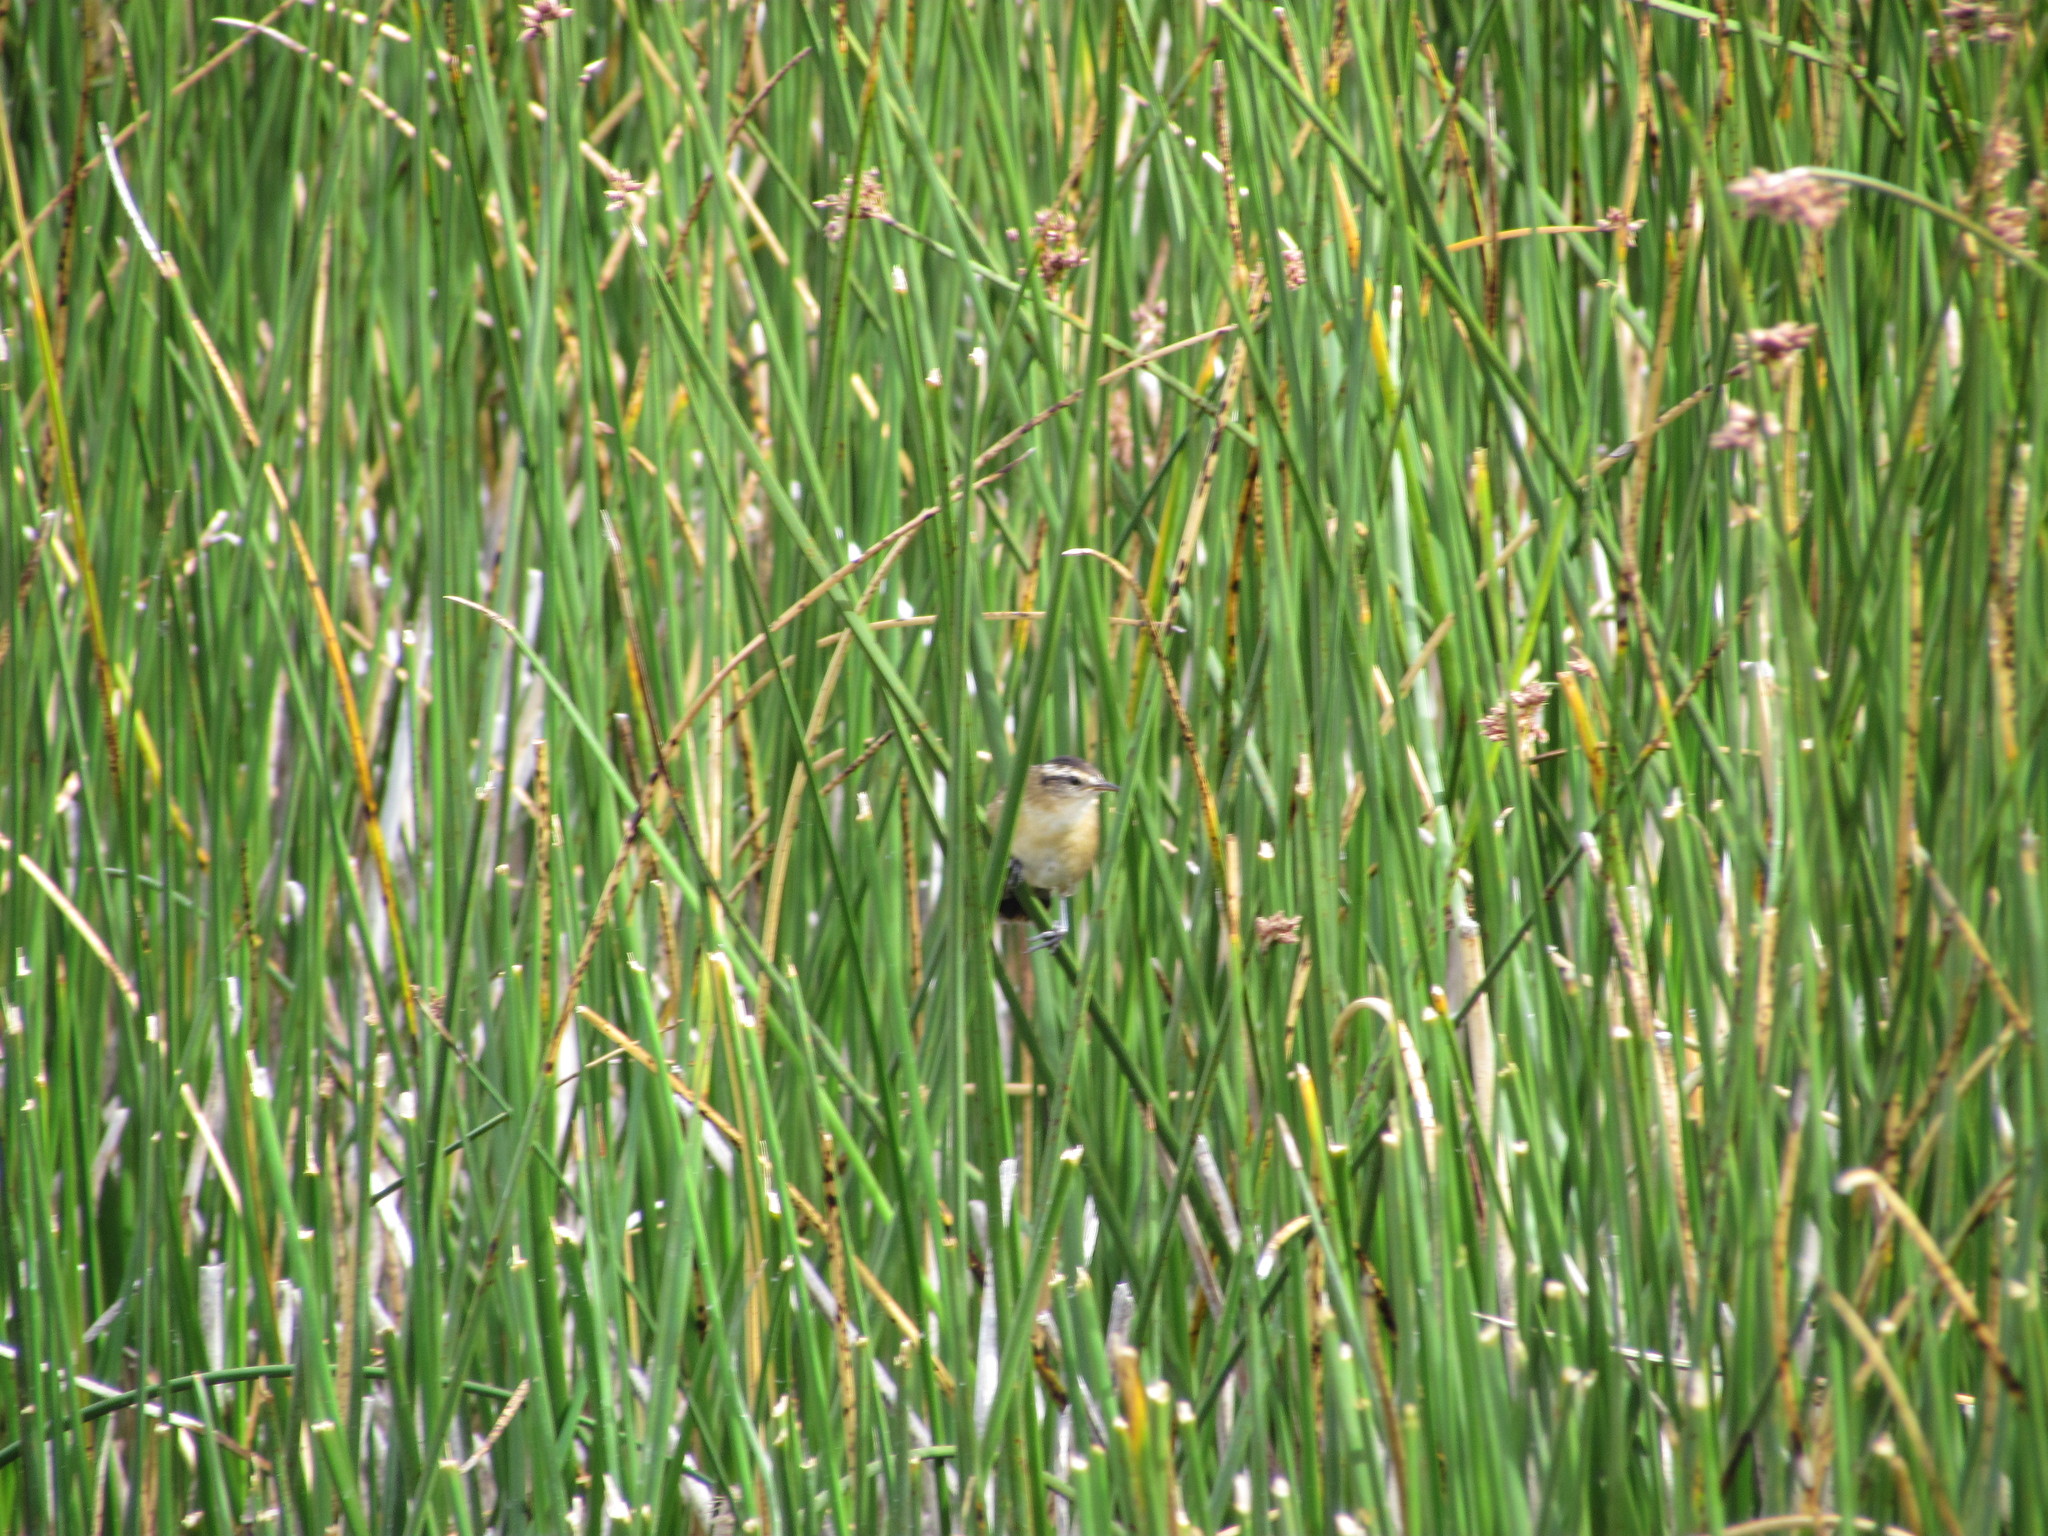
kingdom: Animalia
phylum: Chordata
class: Aves
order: Passeriformes
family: Furnariidae
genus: Phleocryptes
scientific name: Phleocryptes melanops
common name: Wren-like rushbird
